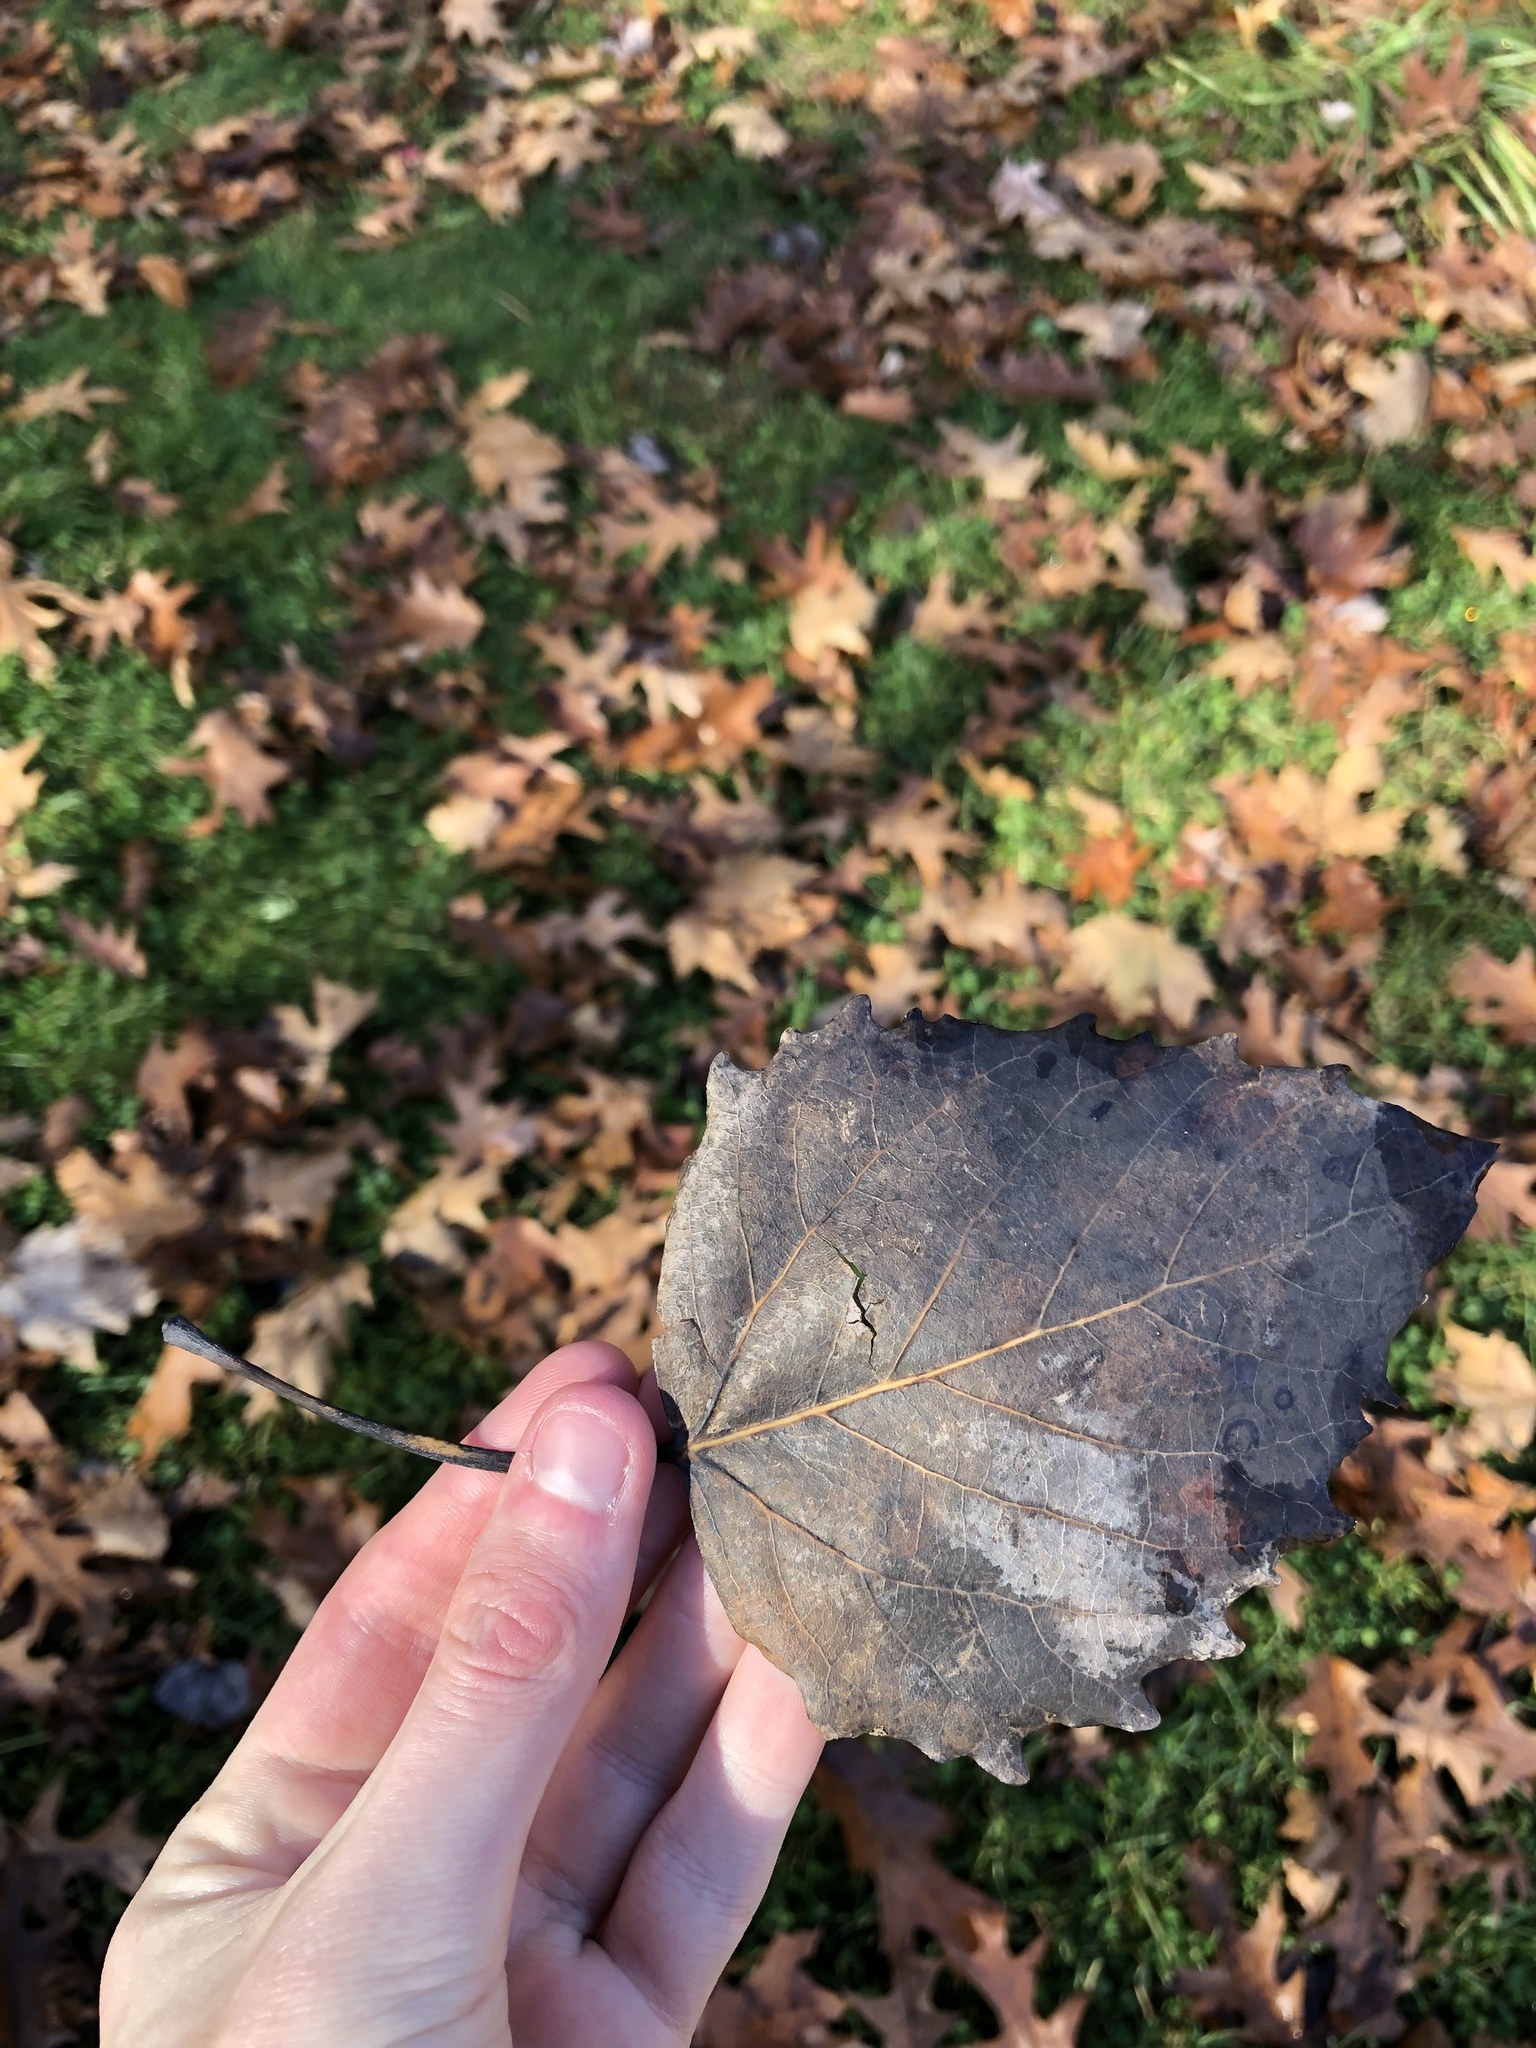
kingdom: Plantae
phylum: Tracheophyta
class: Magnoliopsida
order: Malpighiales
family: Salicaceae
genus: Populus
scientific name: Populus grandidentata
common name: Bigtooth aspen
